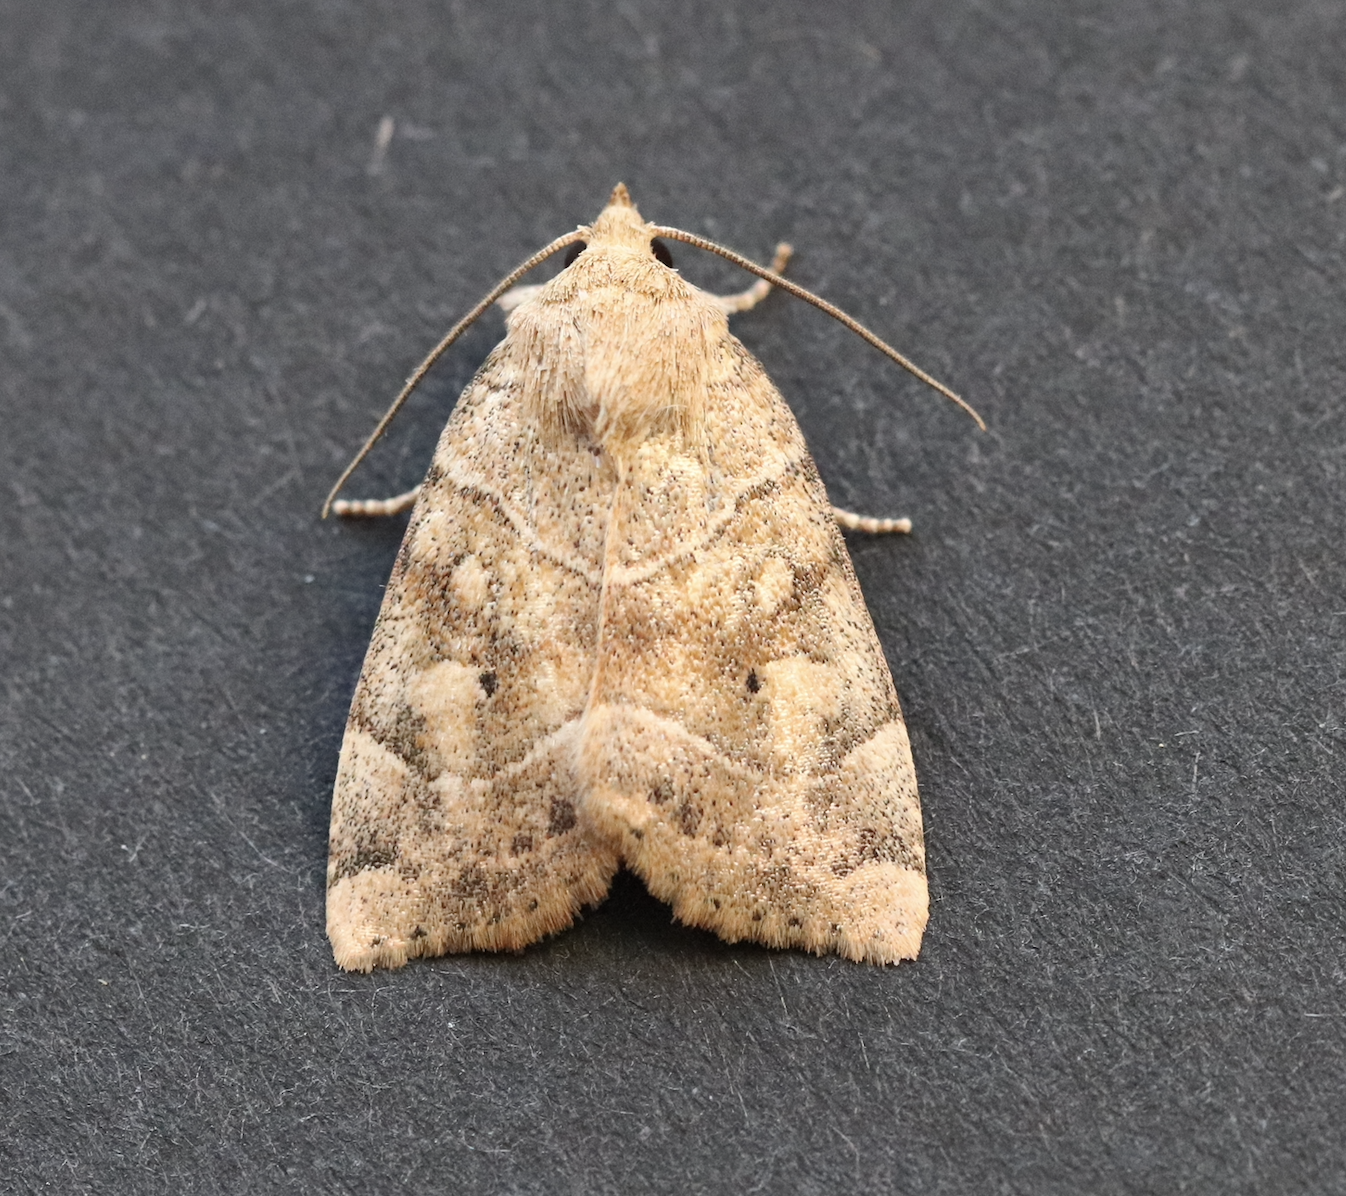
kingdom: Animalia
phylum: Arthropoda
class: Insecta
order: Lepidoptera
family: Noctuidae
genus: Cosmia
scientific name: Cosmia trapezina
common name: Dun-bar
